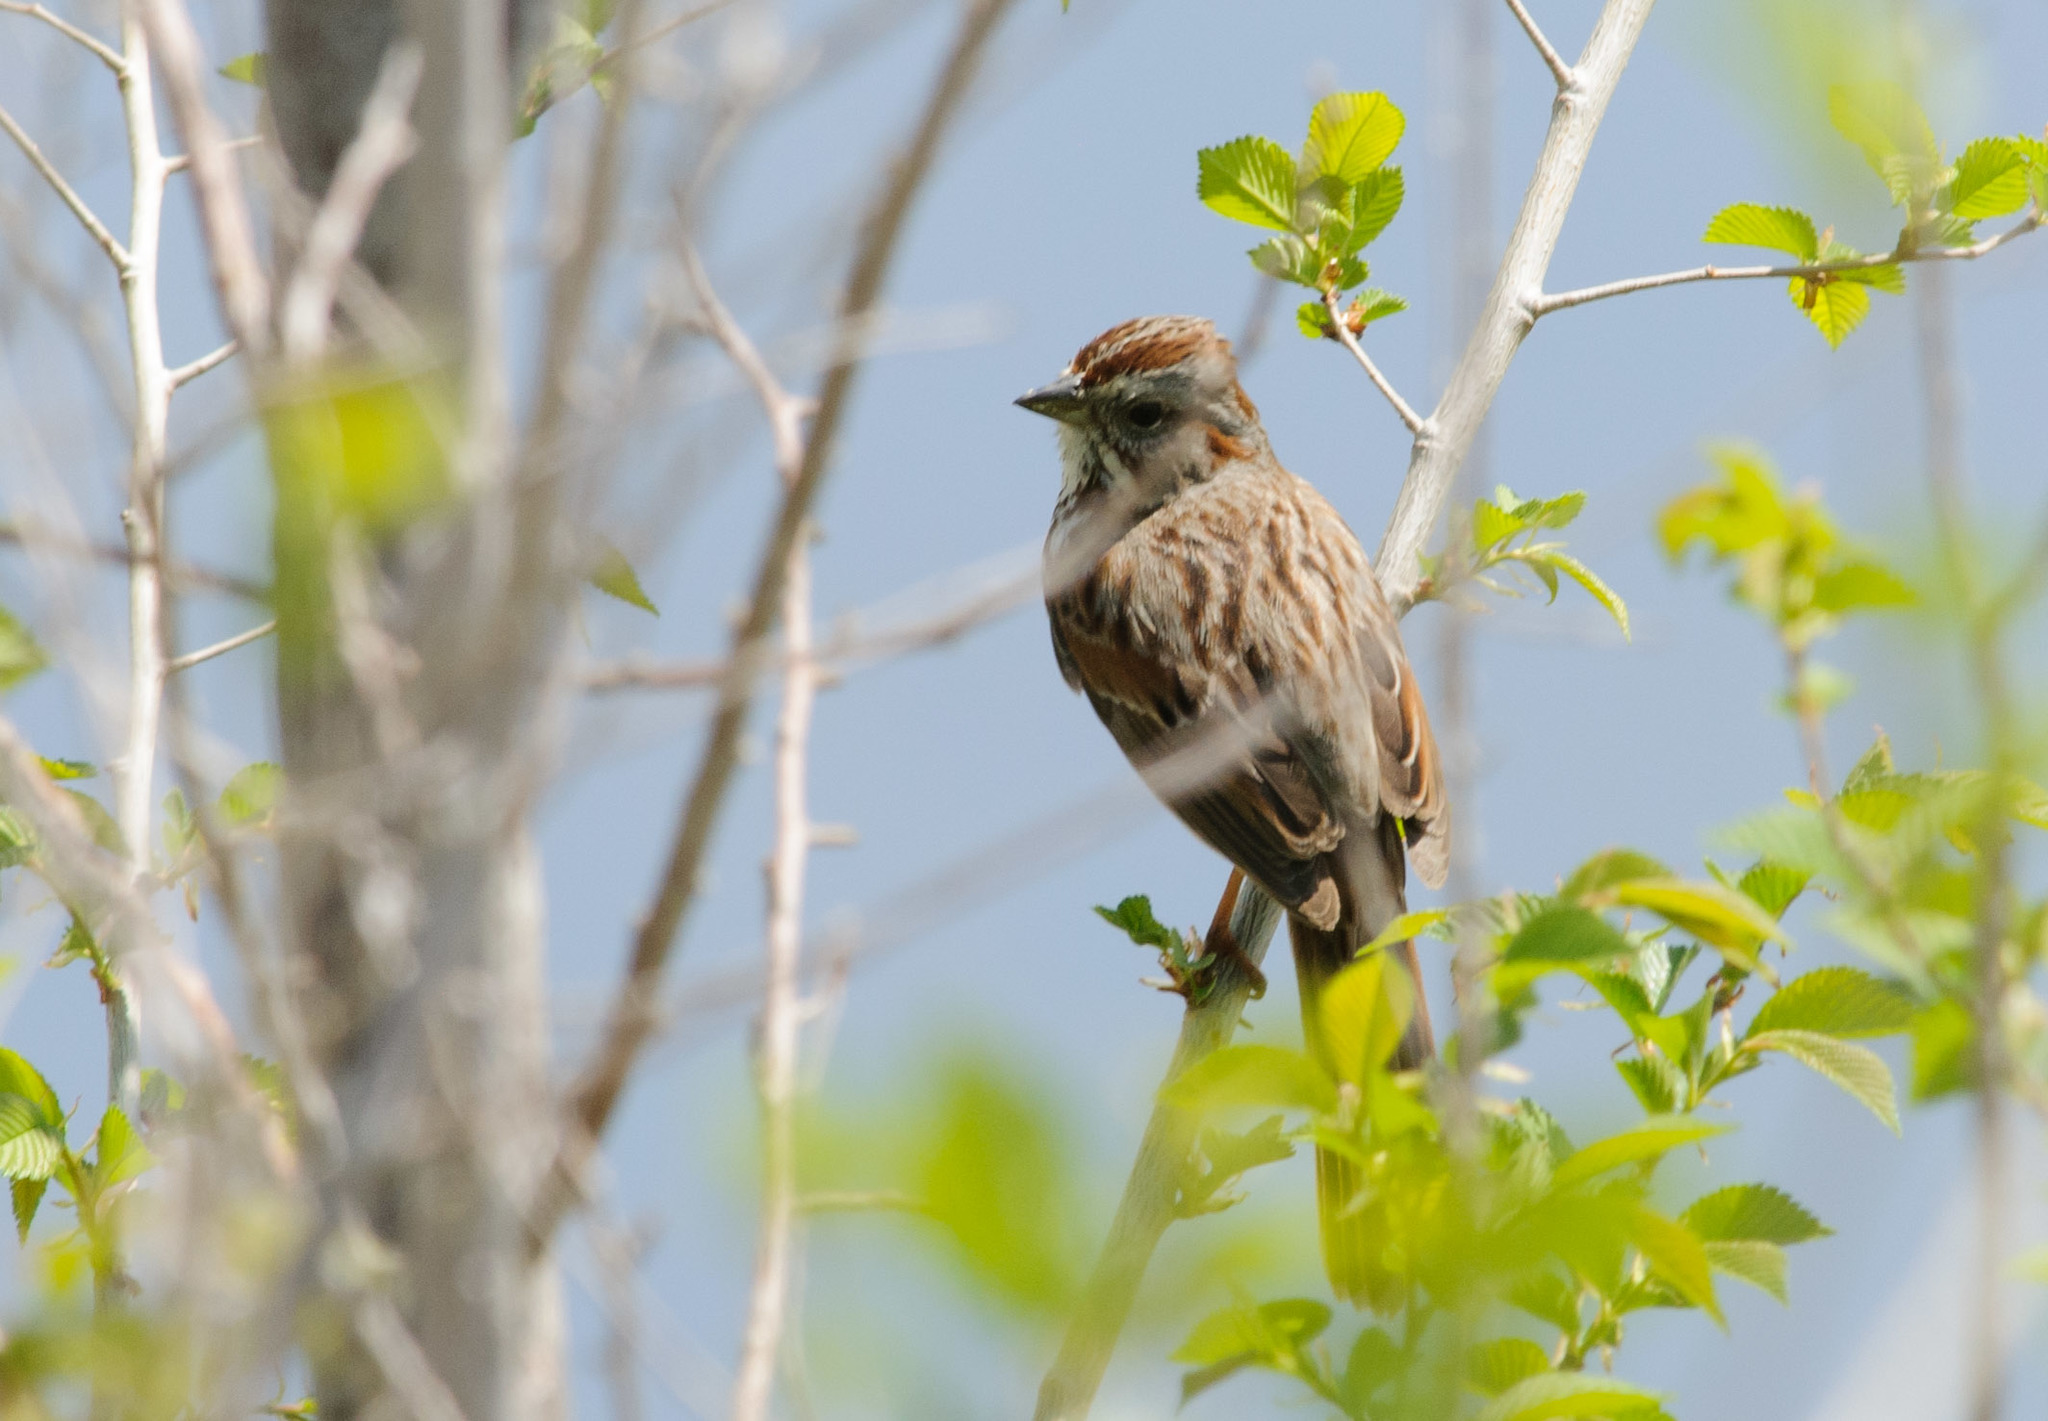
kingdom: Animalia
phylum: Chordata
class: Aves
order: Passeriformes
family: Passerellidae
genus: Melospiza
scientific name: Melospiza melodia
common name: Song sparrow
